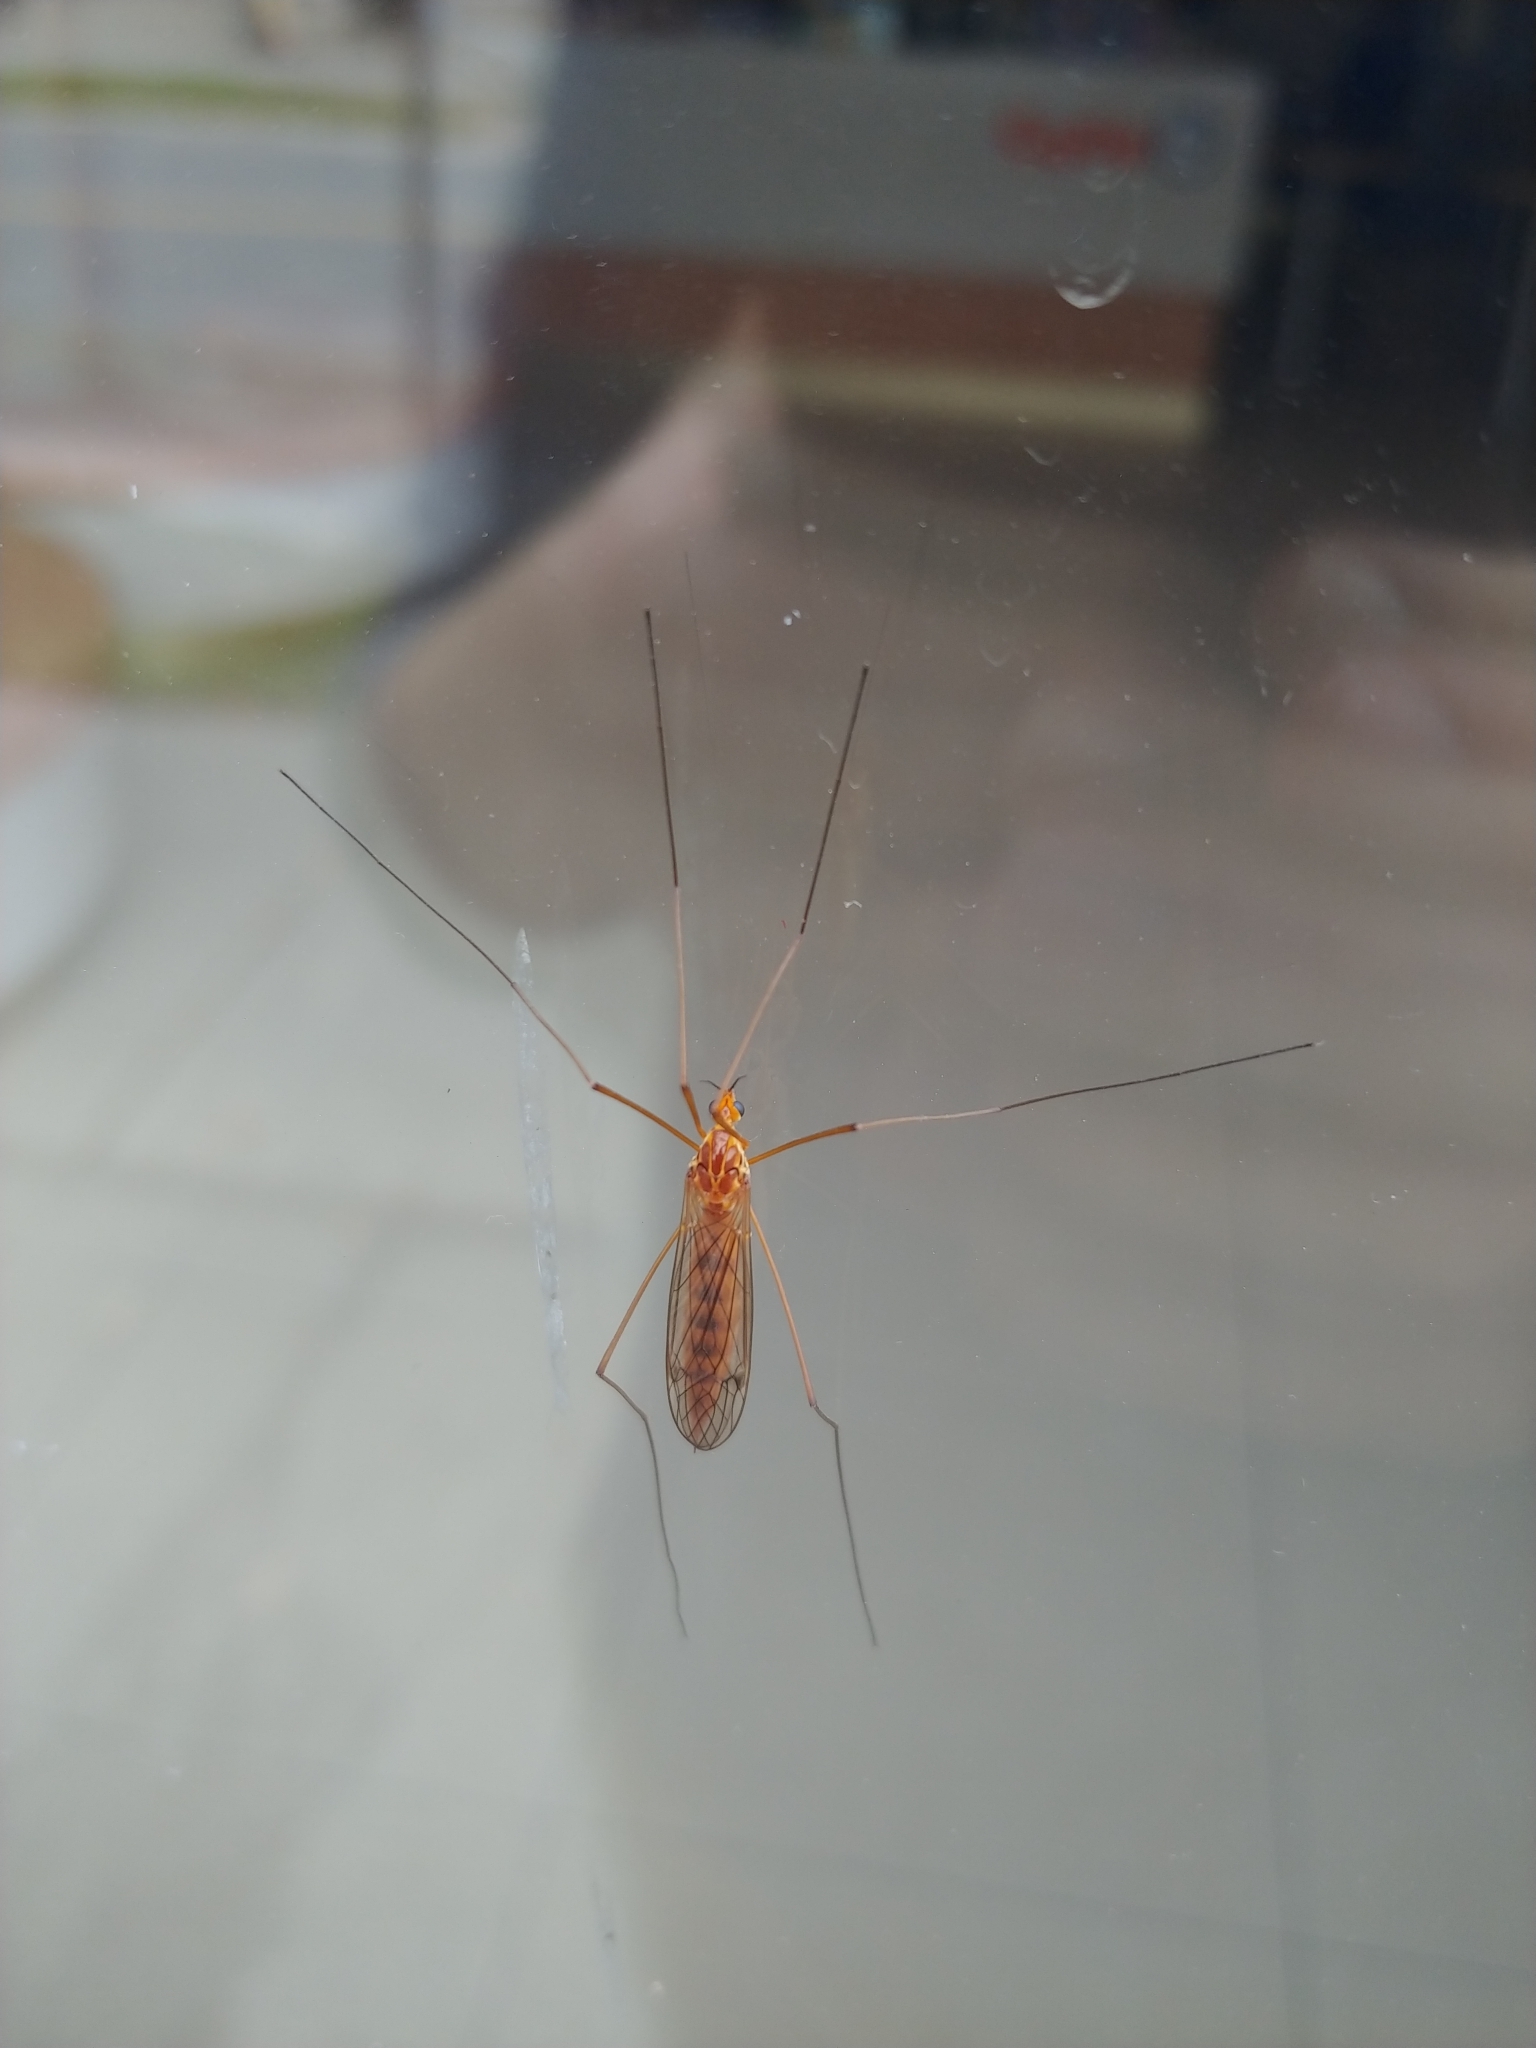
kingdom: Animalia
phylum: Arthropoda
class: Insecta
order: Diptera
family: Tipulidae
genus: Nephrotoma
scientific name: Nephrotoma ferruginea
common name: Ferruginous tiger crane fly
